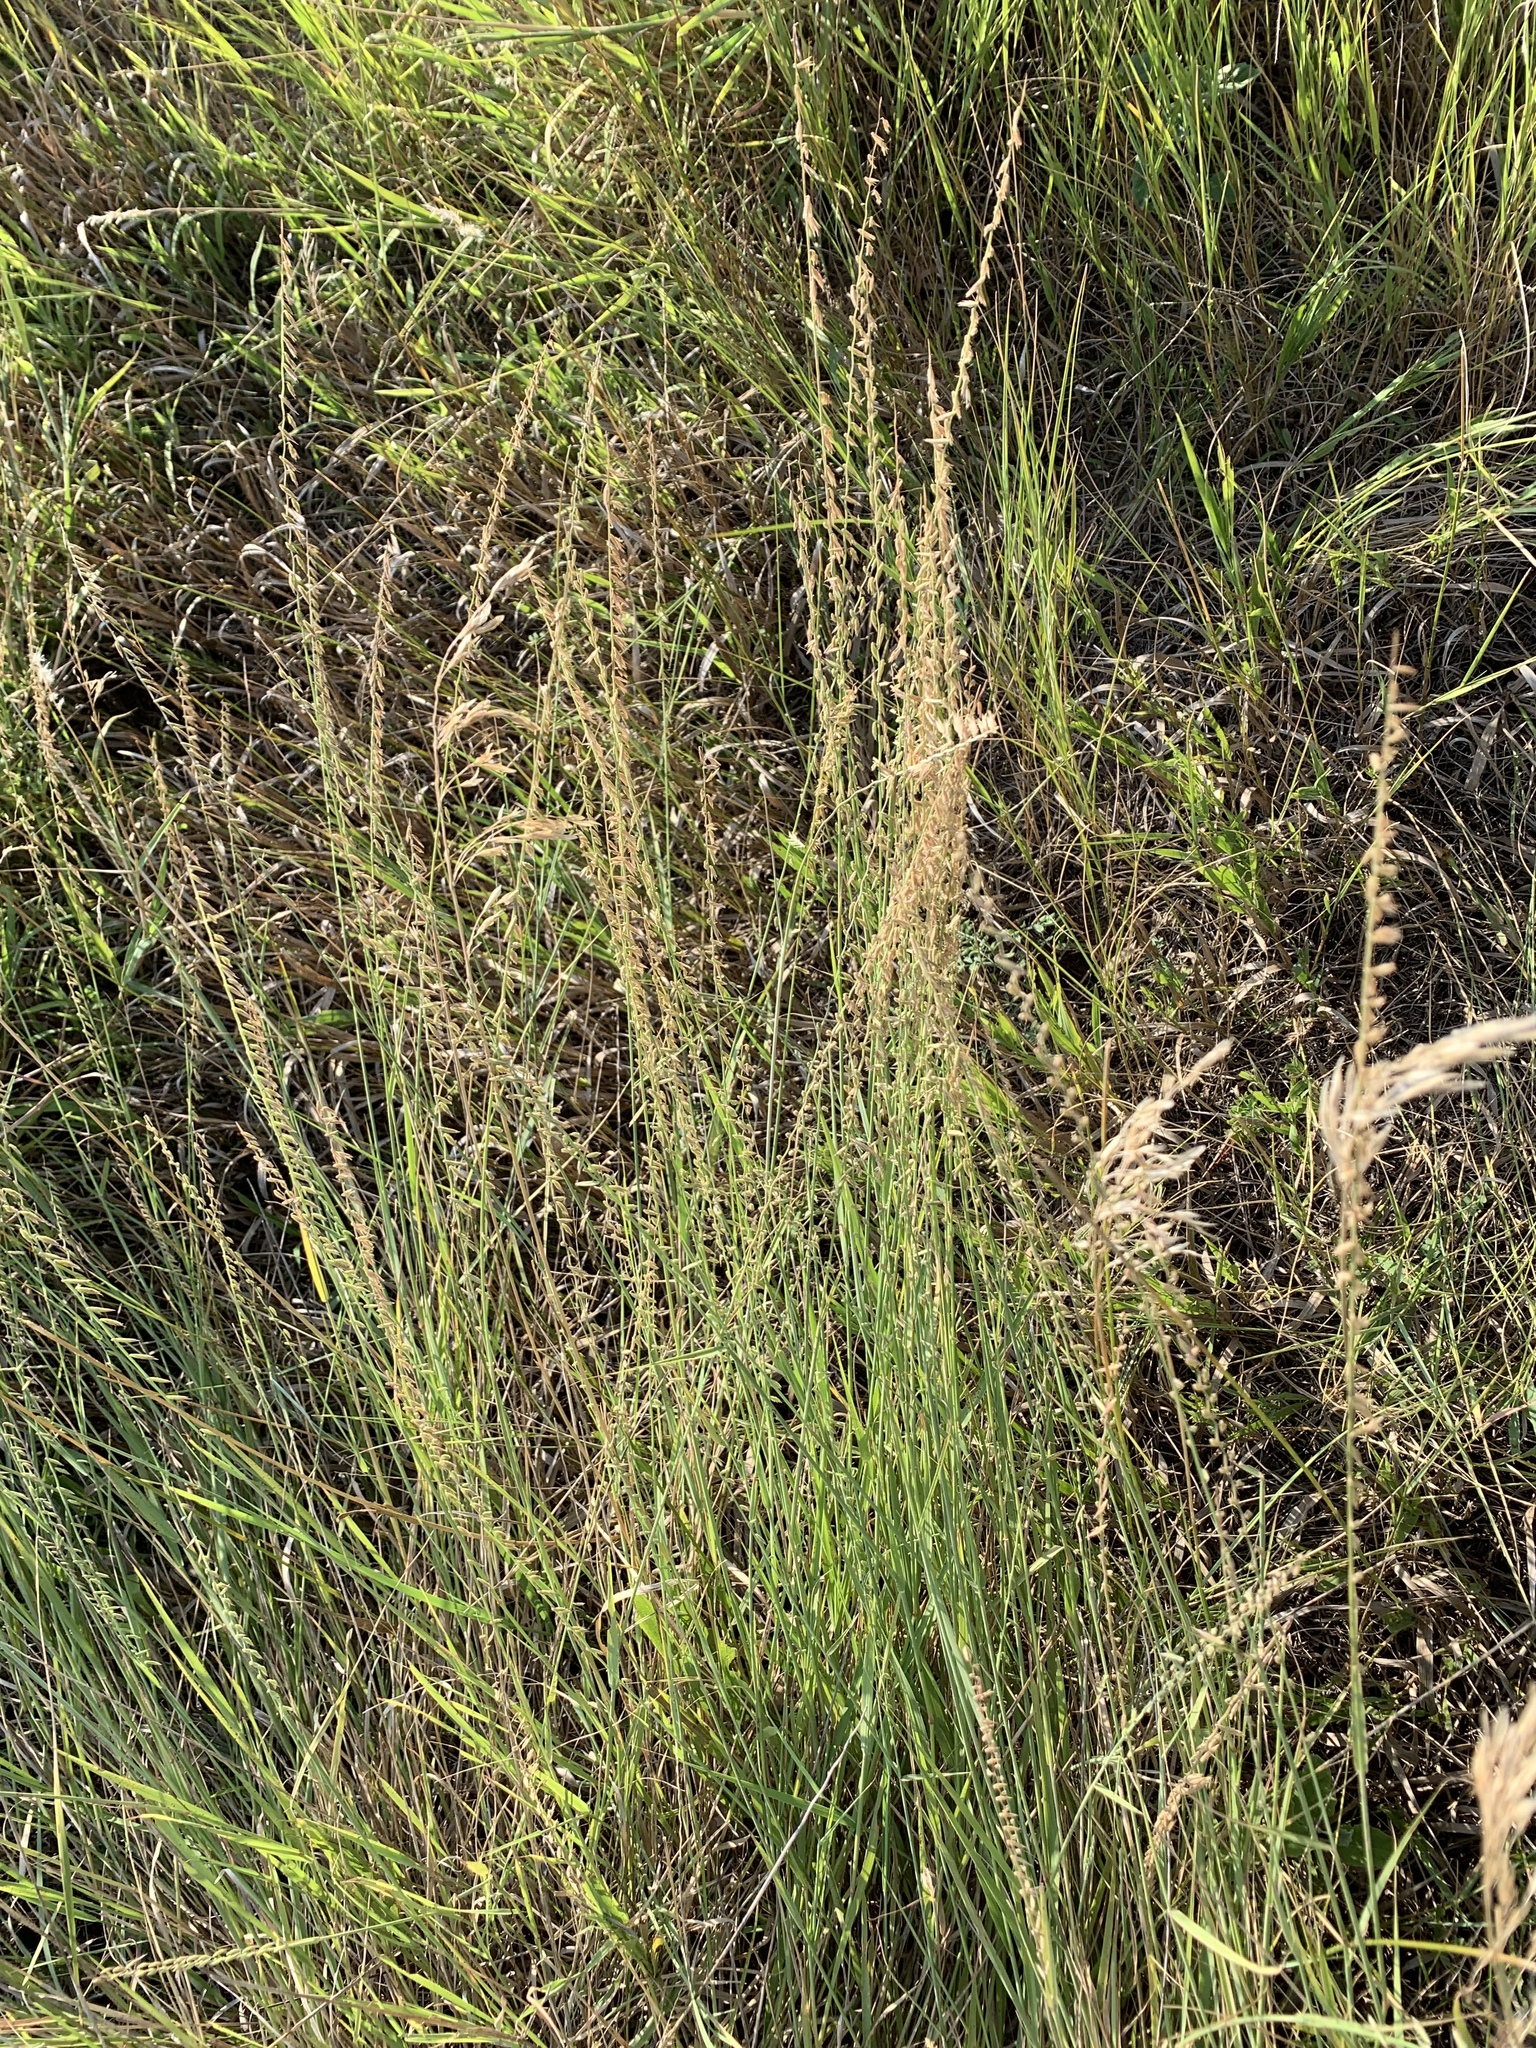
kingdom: Plantae
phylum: Tracheophyta
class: Liliopsida
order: Poales
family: Poaceae
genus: Bouteloua
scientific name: Bouteloua curtipendula
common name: Side-oats grama
